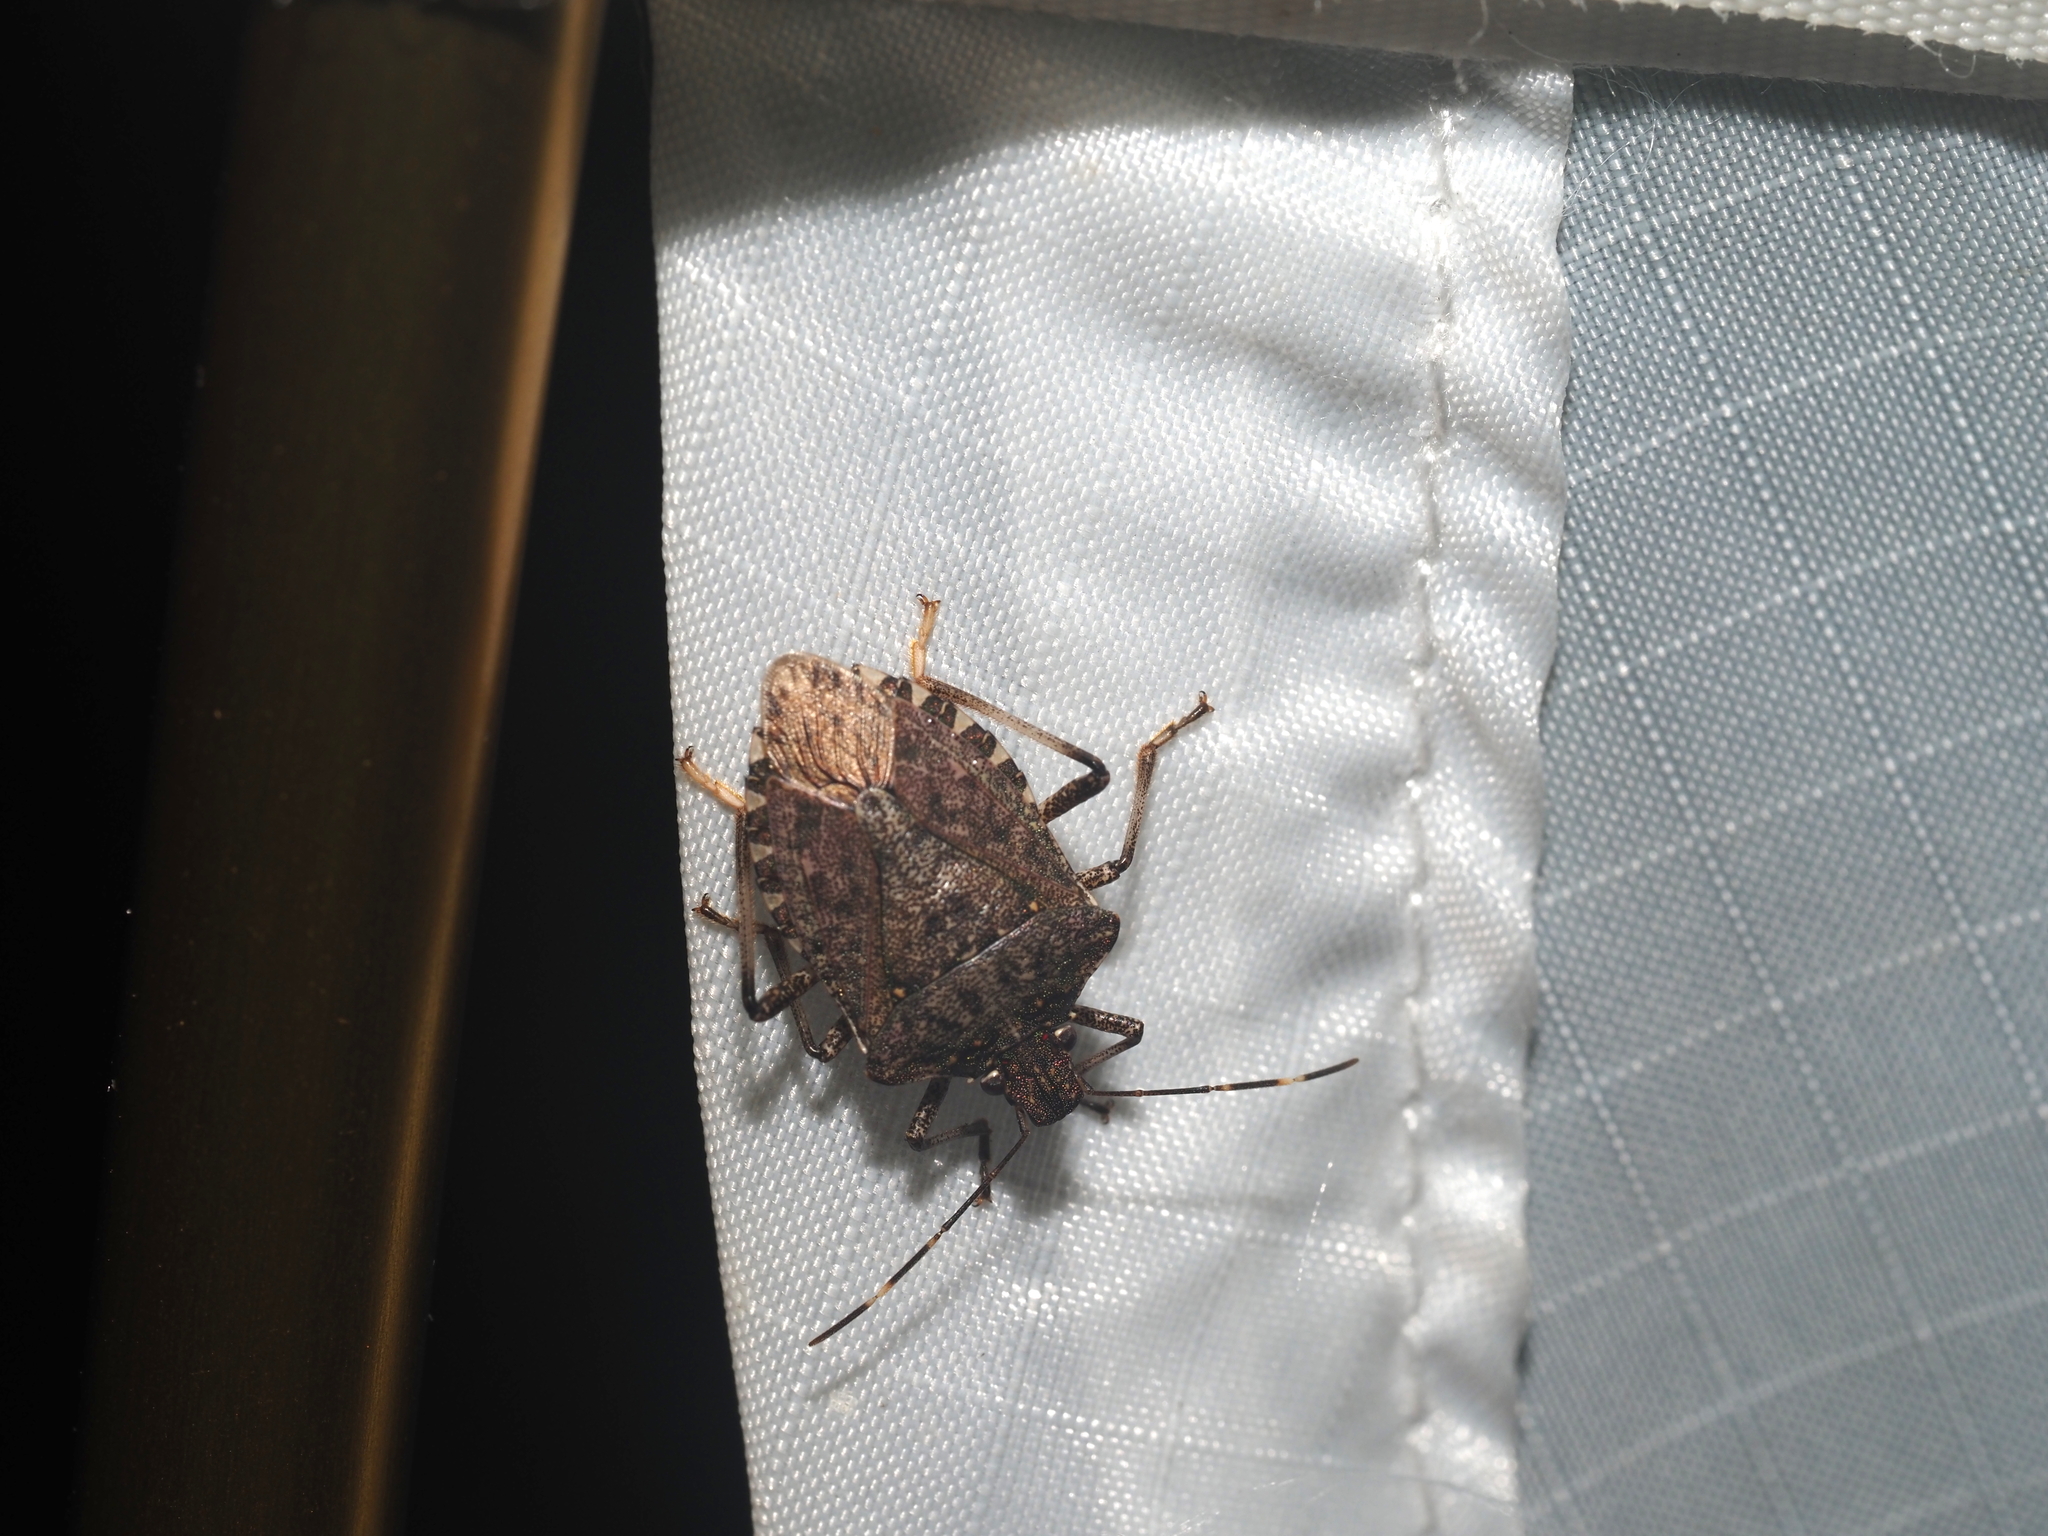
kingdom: Animalia
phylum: Arthropoda
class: Insecta
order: Hemiptera
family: Pentatomidae
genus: Halyomorpha
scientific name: Halyomorpha halys
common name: Brown marmorated stink bug
